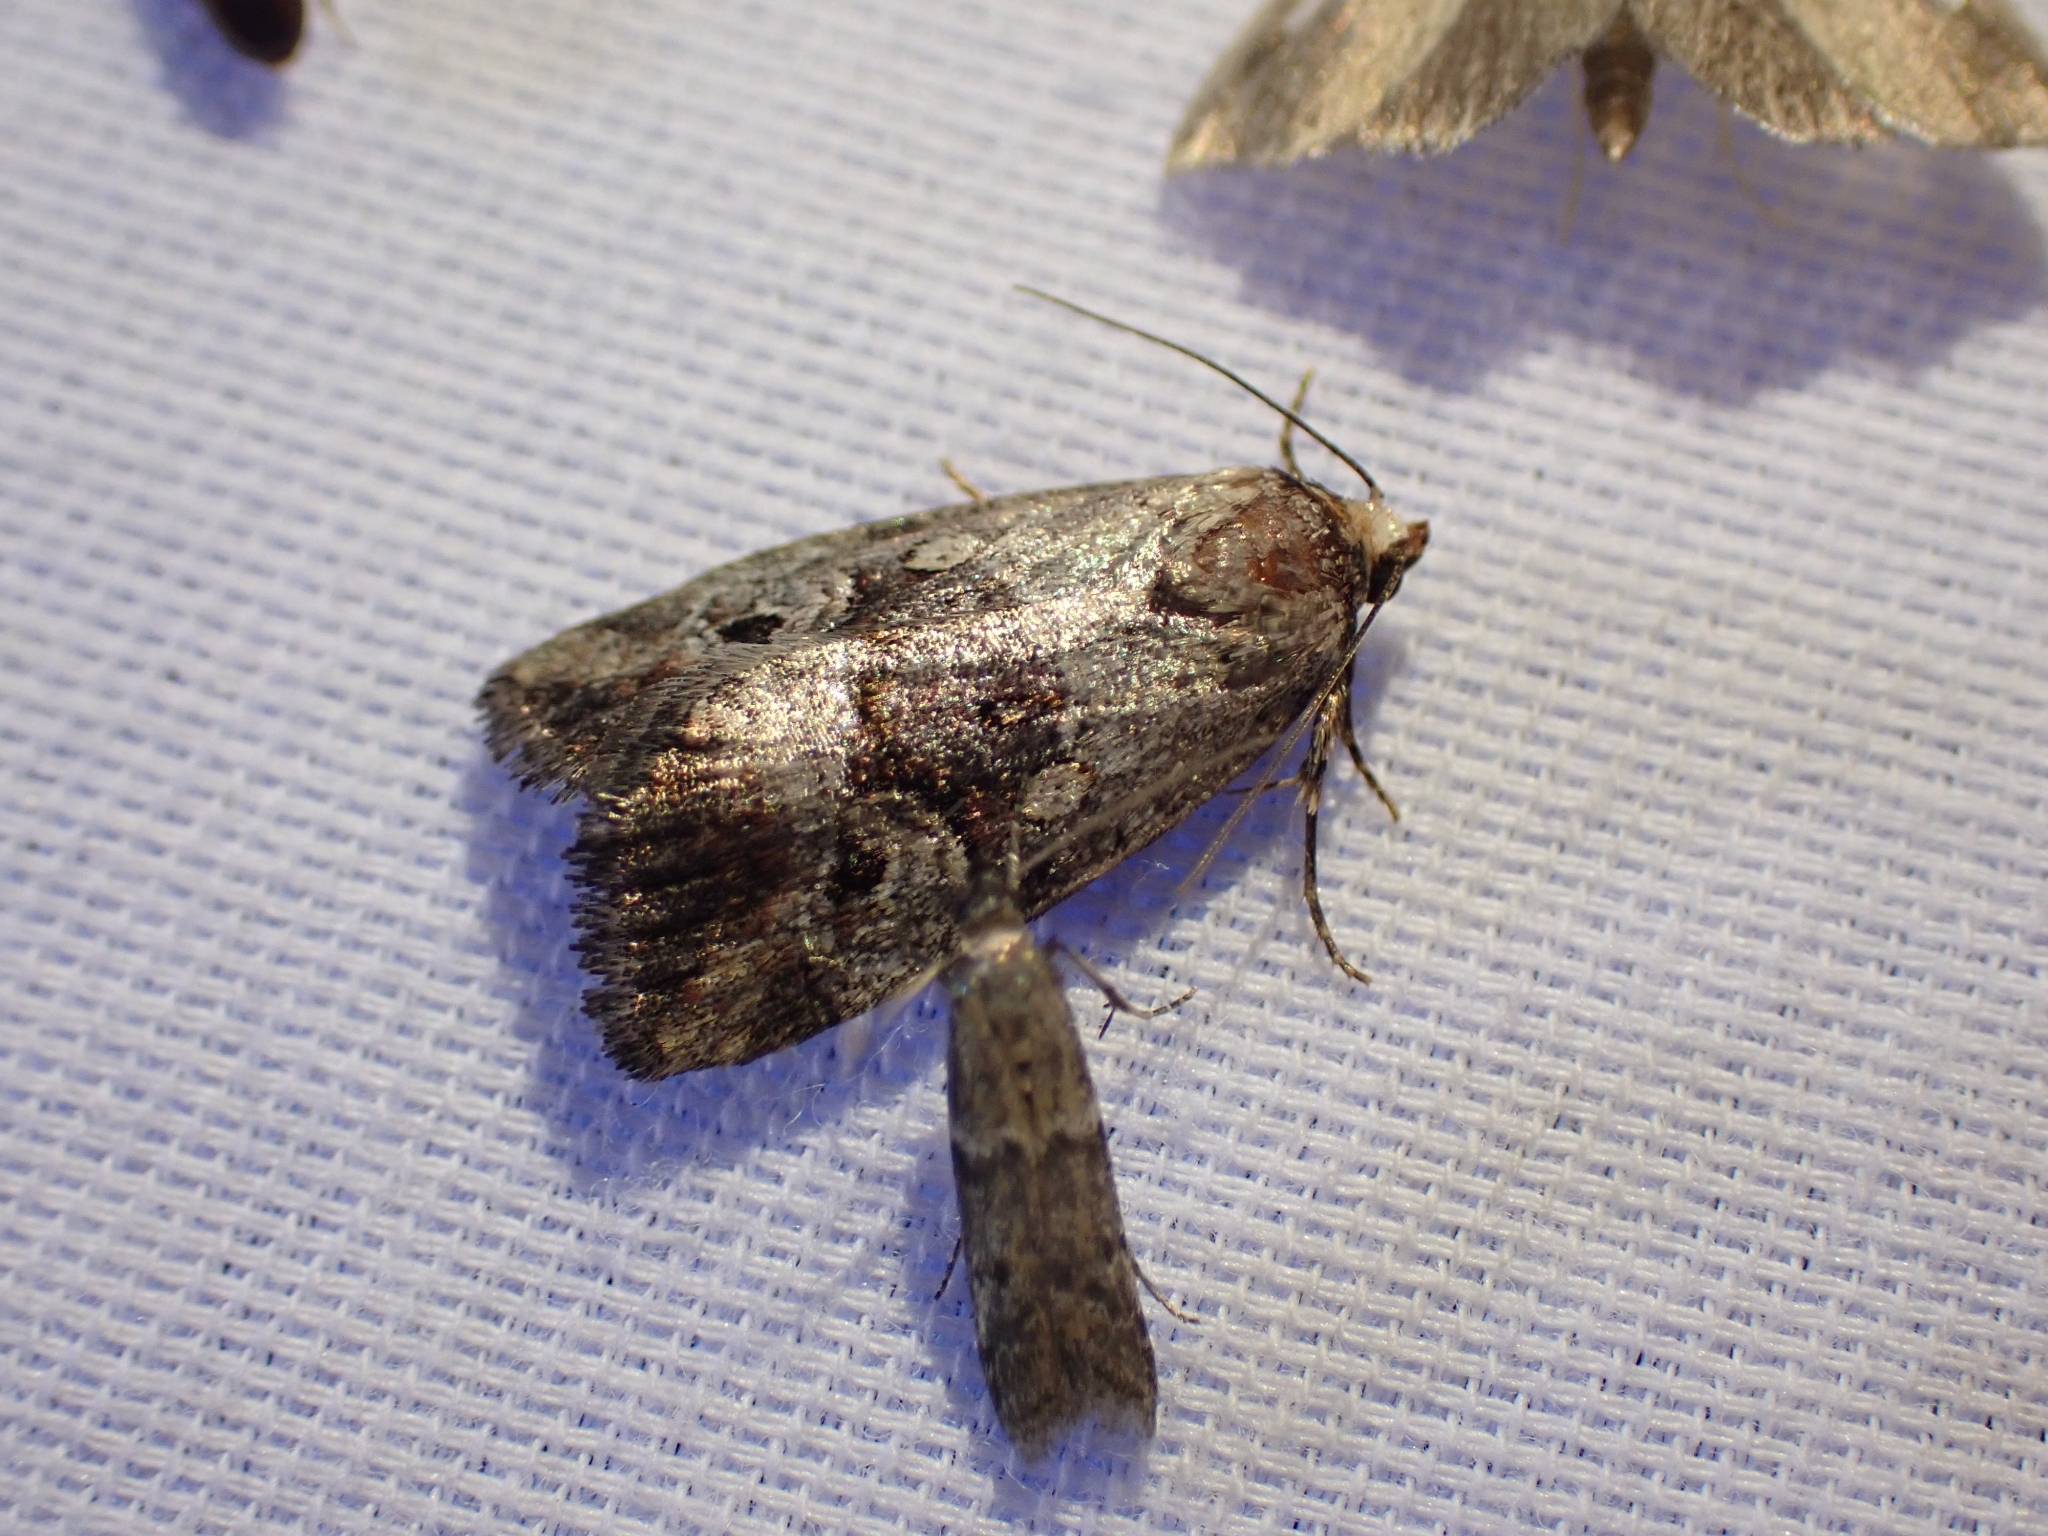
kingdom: Animalia
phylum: Arthropoda
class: Insecta
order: Lepidoptera
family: Noctuidae
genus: Elaphria
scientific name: Elaphria alapallida
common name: Pale-winged midget
